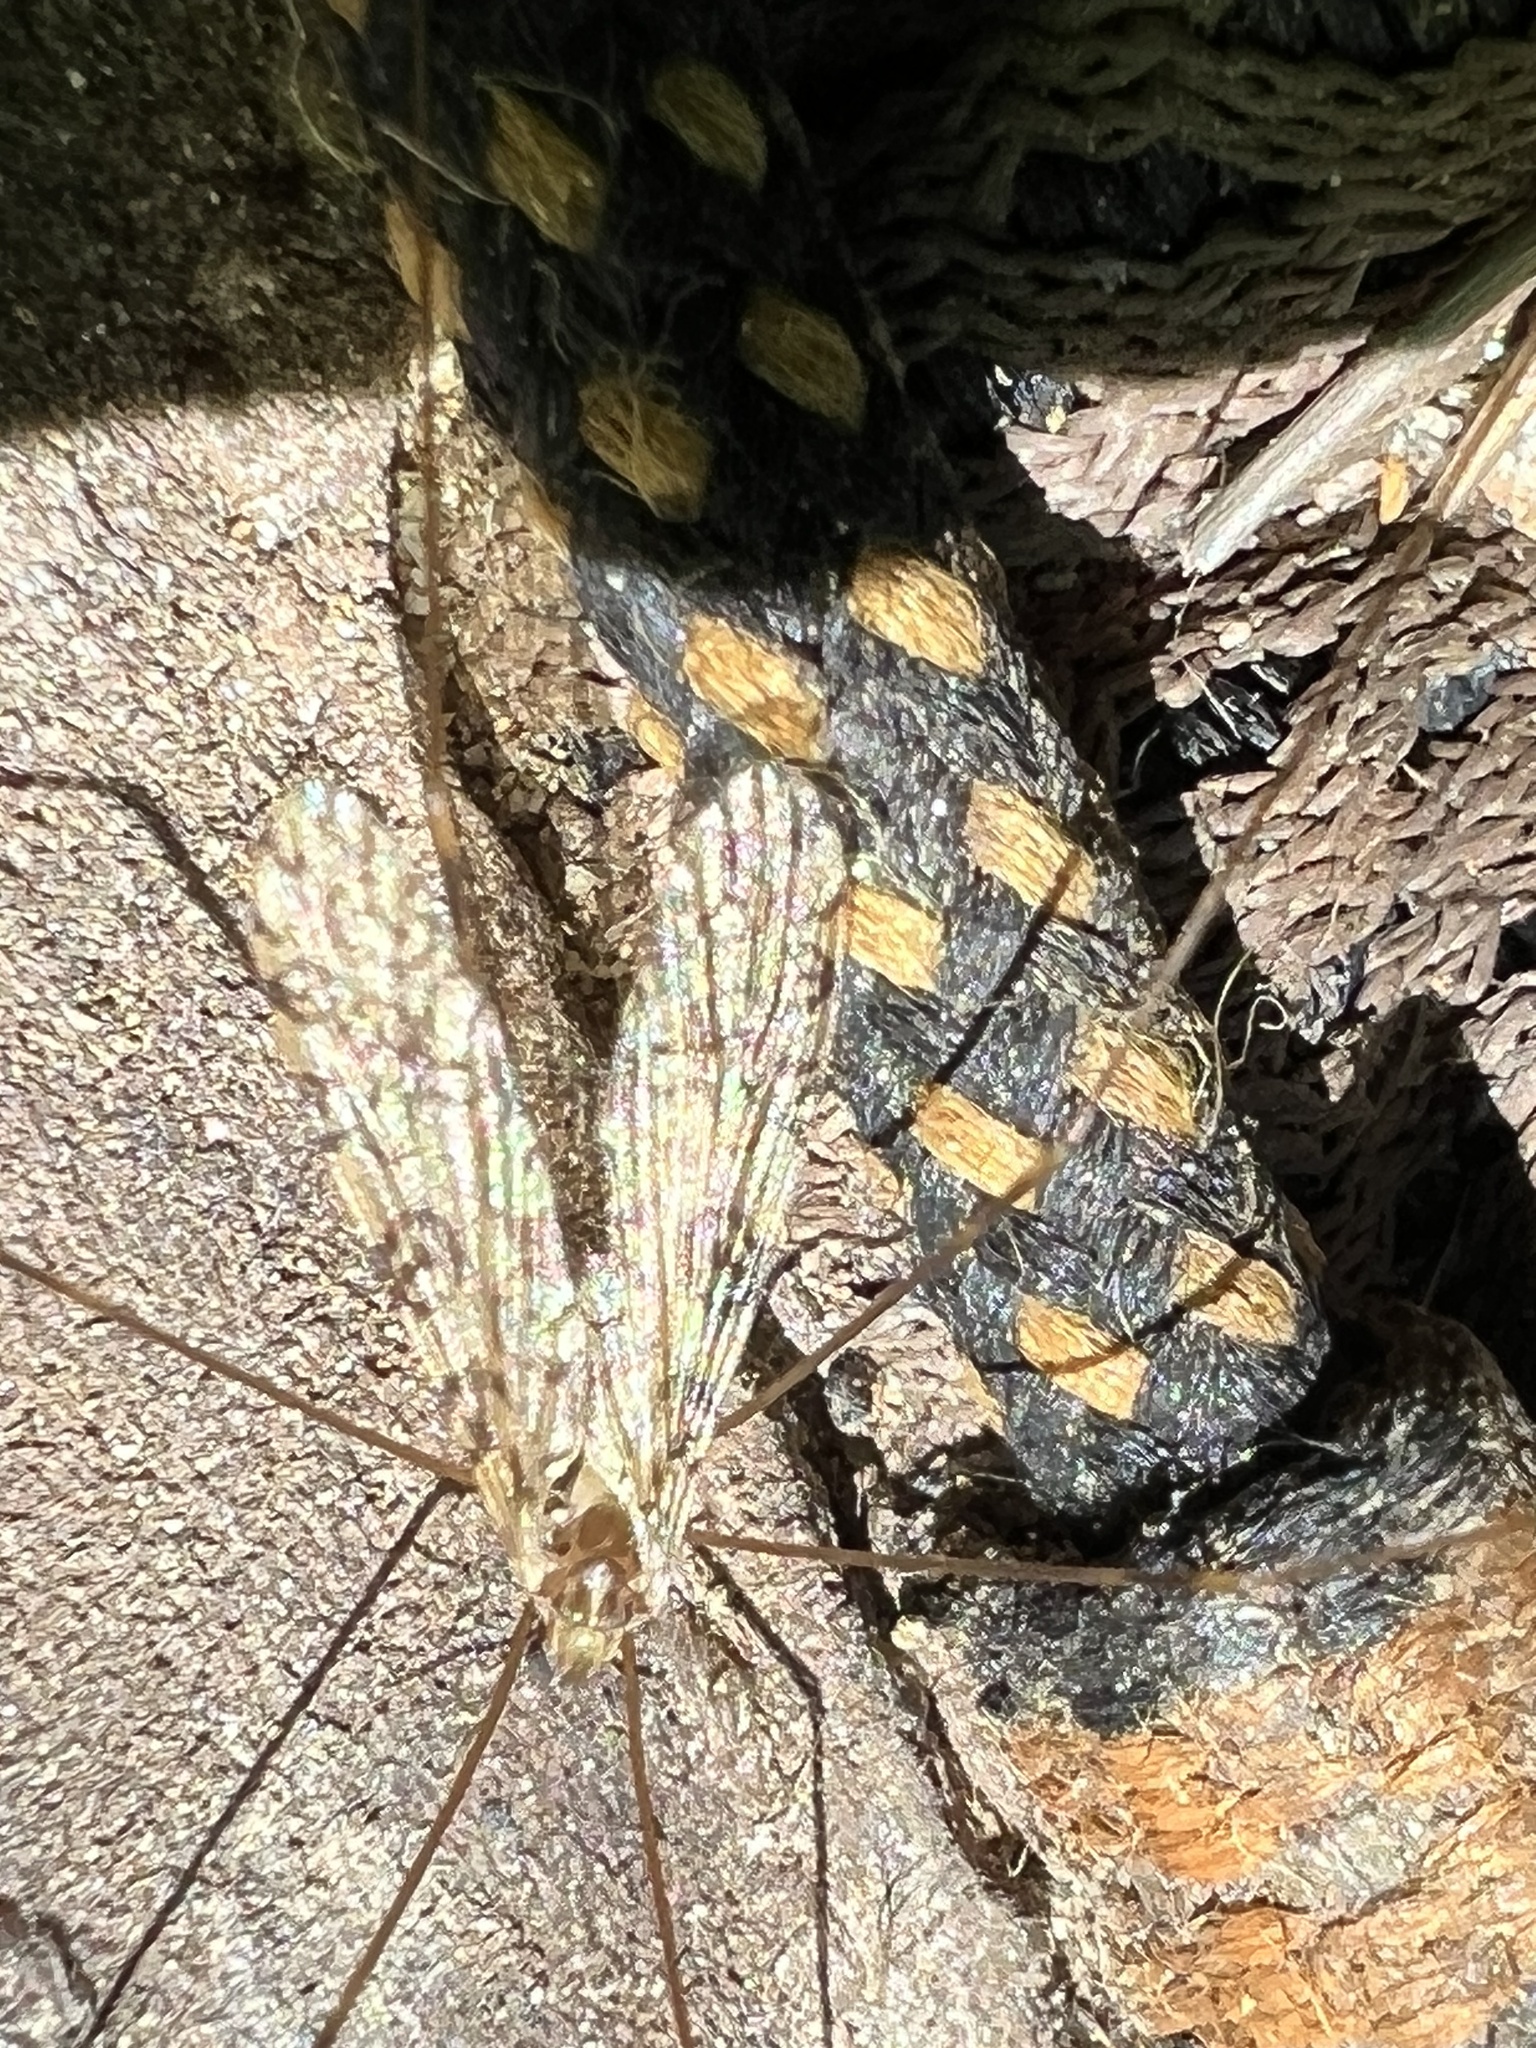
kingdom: Animalia
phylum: Arthropoda
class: Insecta
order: Diptera
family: Limoniidae
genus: Limonia
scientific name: Limonia annulata
